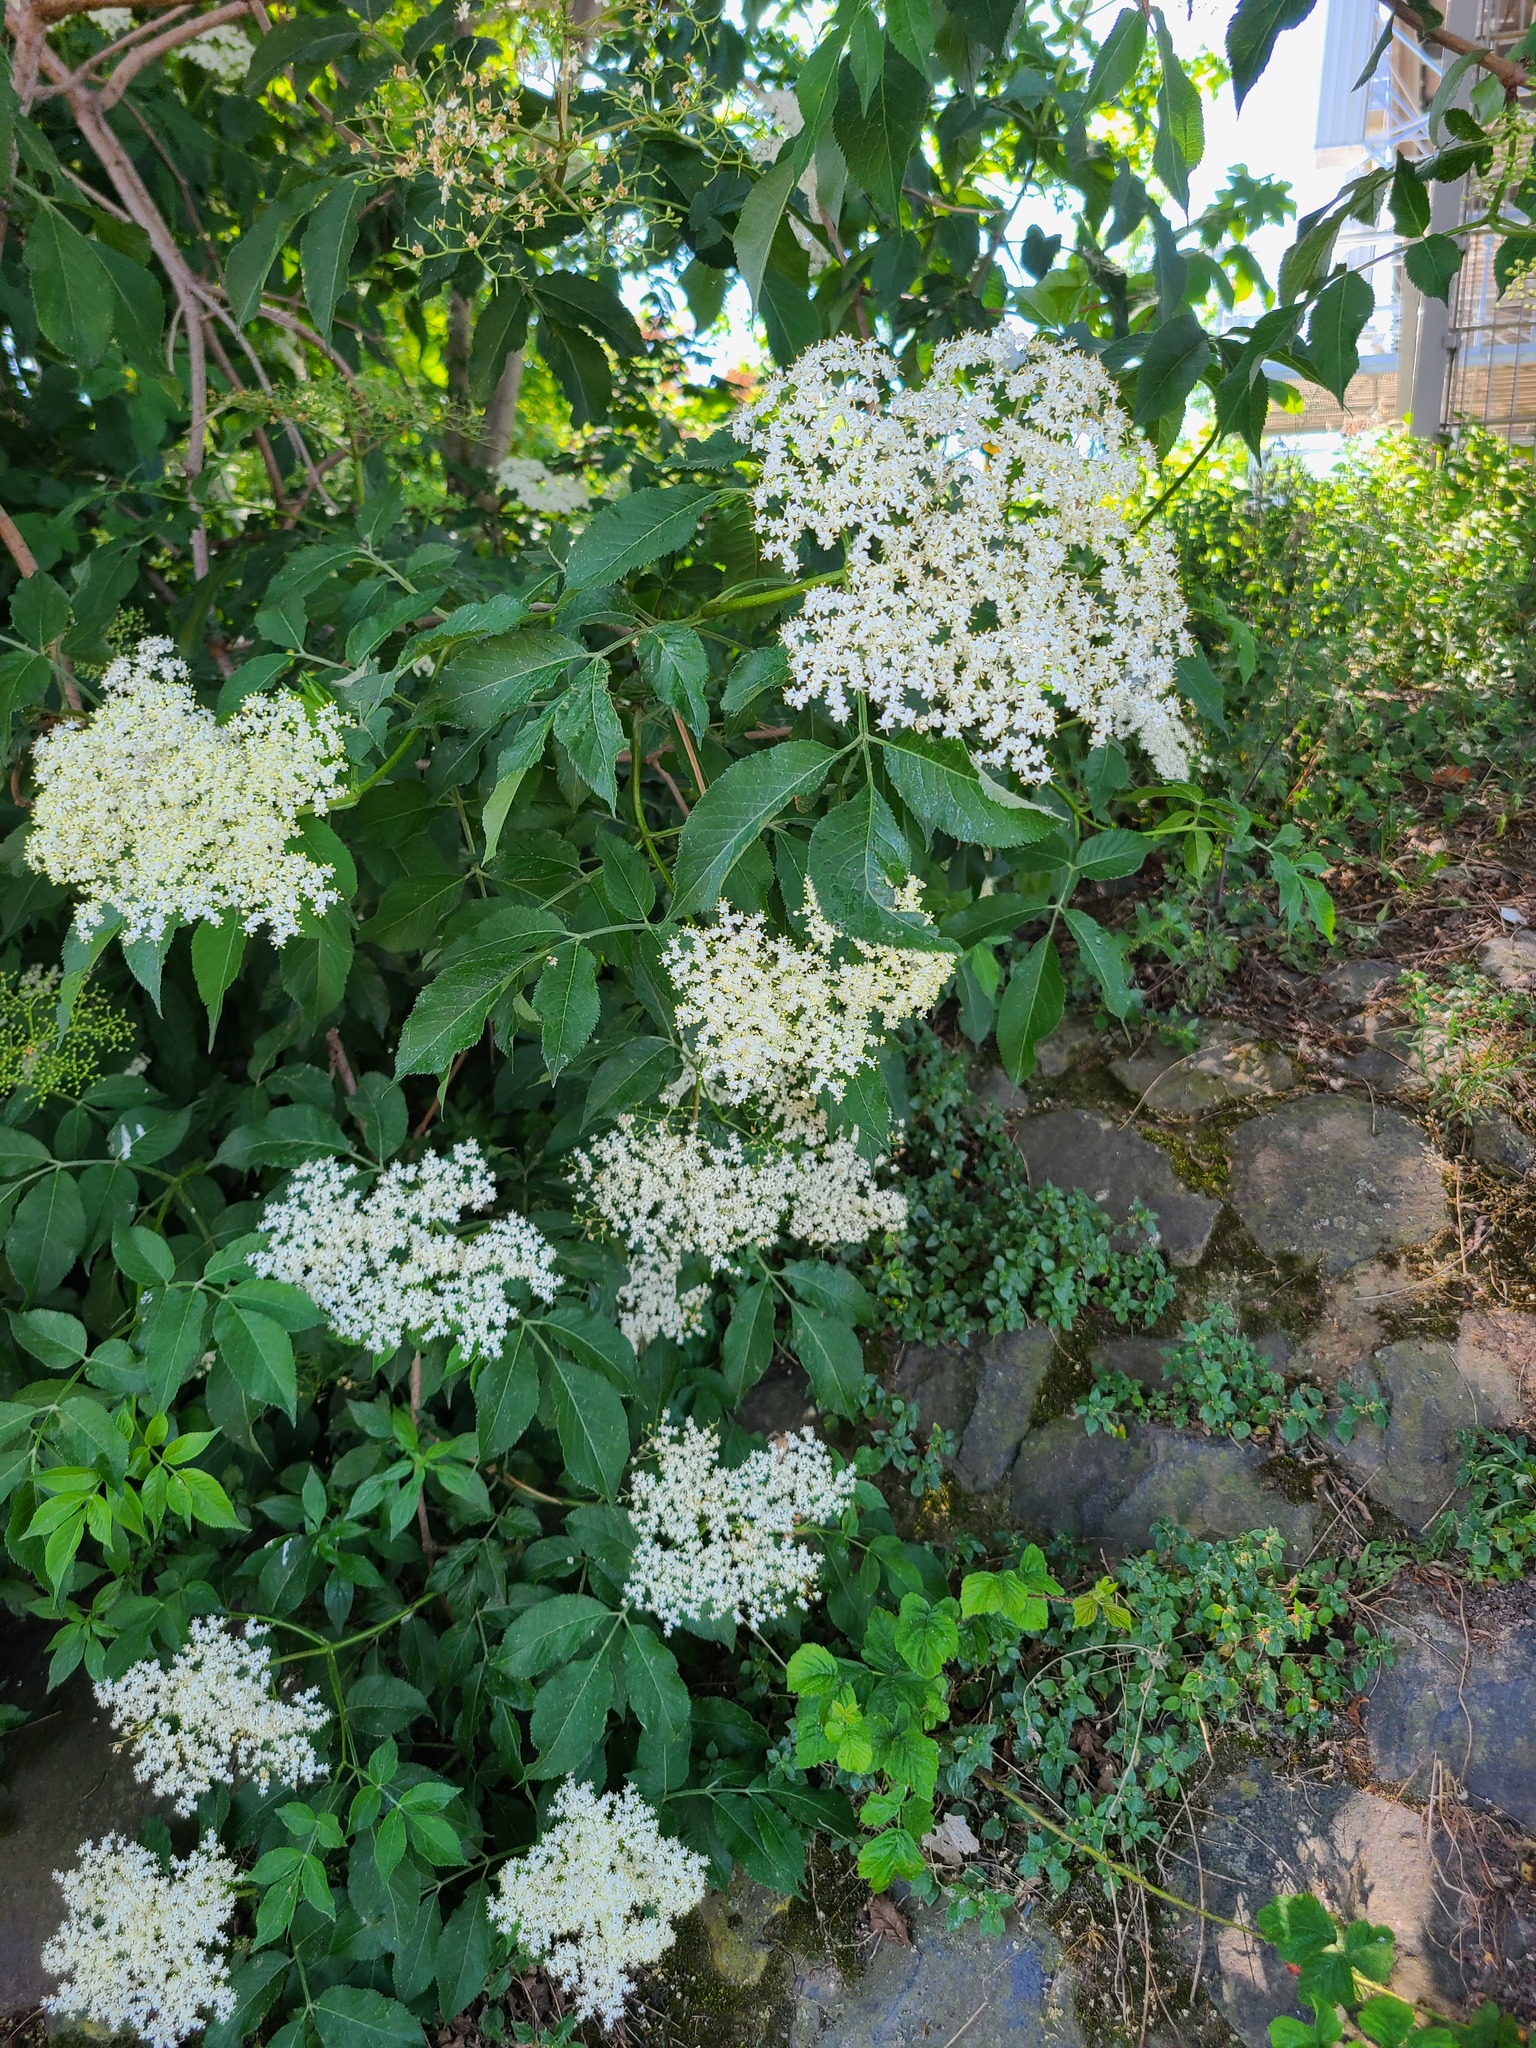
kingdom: Plantae
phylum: Tracheophyta
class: Magnoliopsida
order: Dipsacales
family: Viburnaceae
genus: Sambucus
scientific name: Sambucus nigra
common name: Elder
